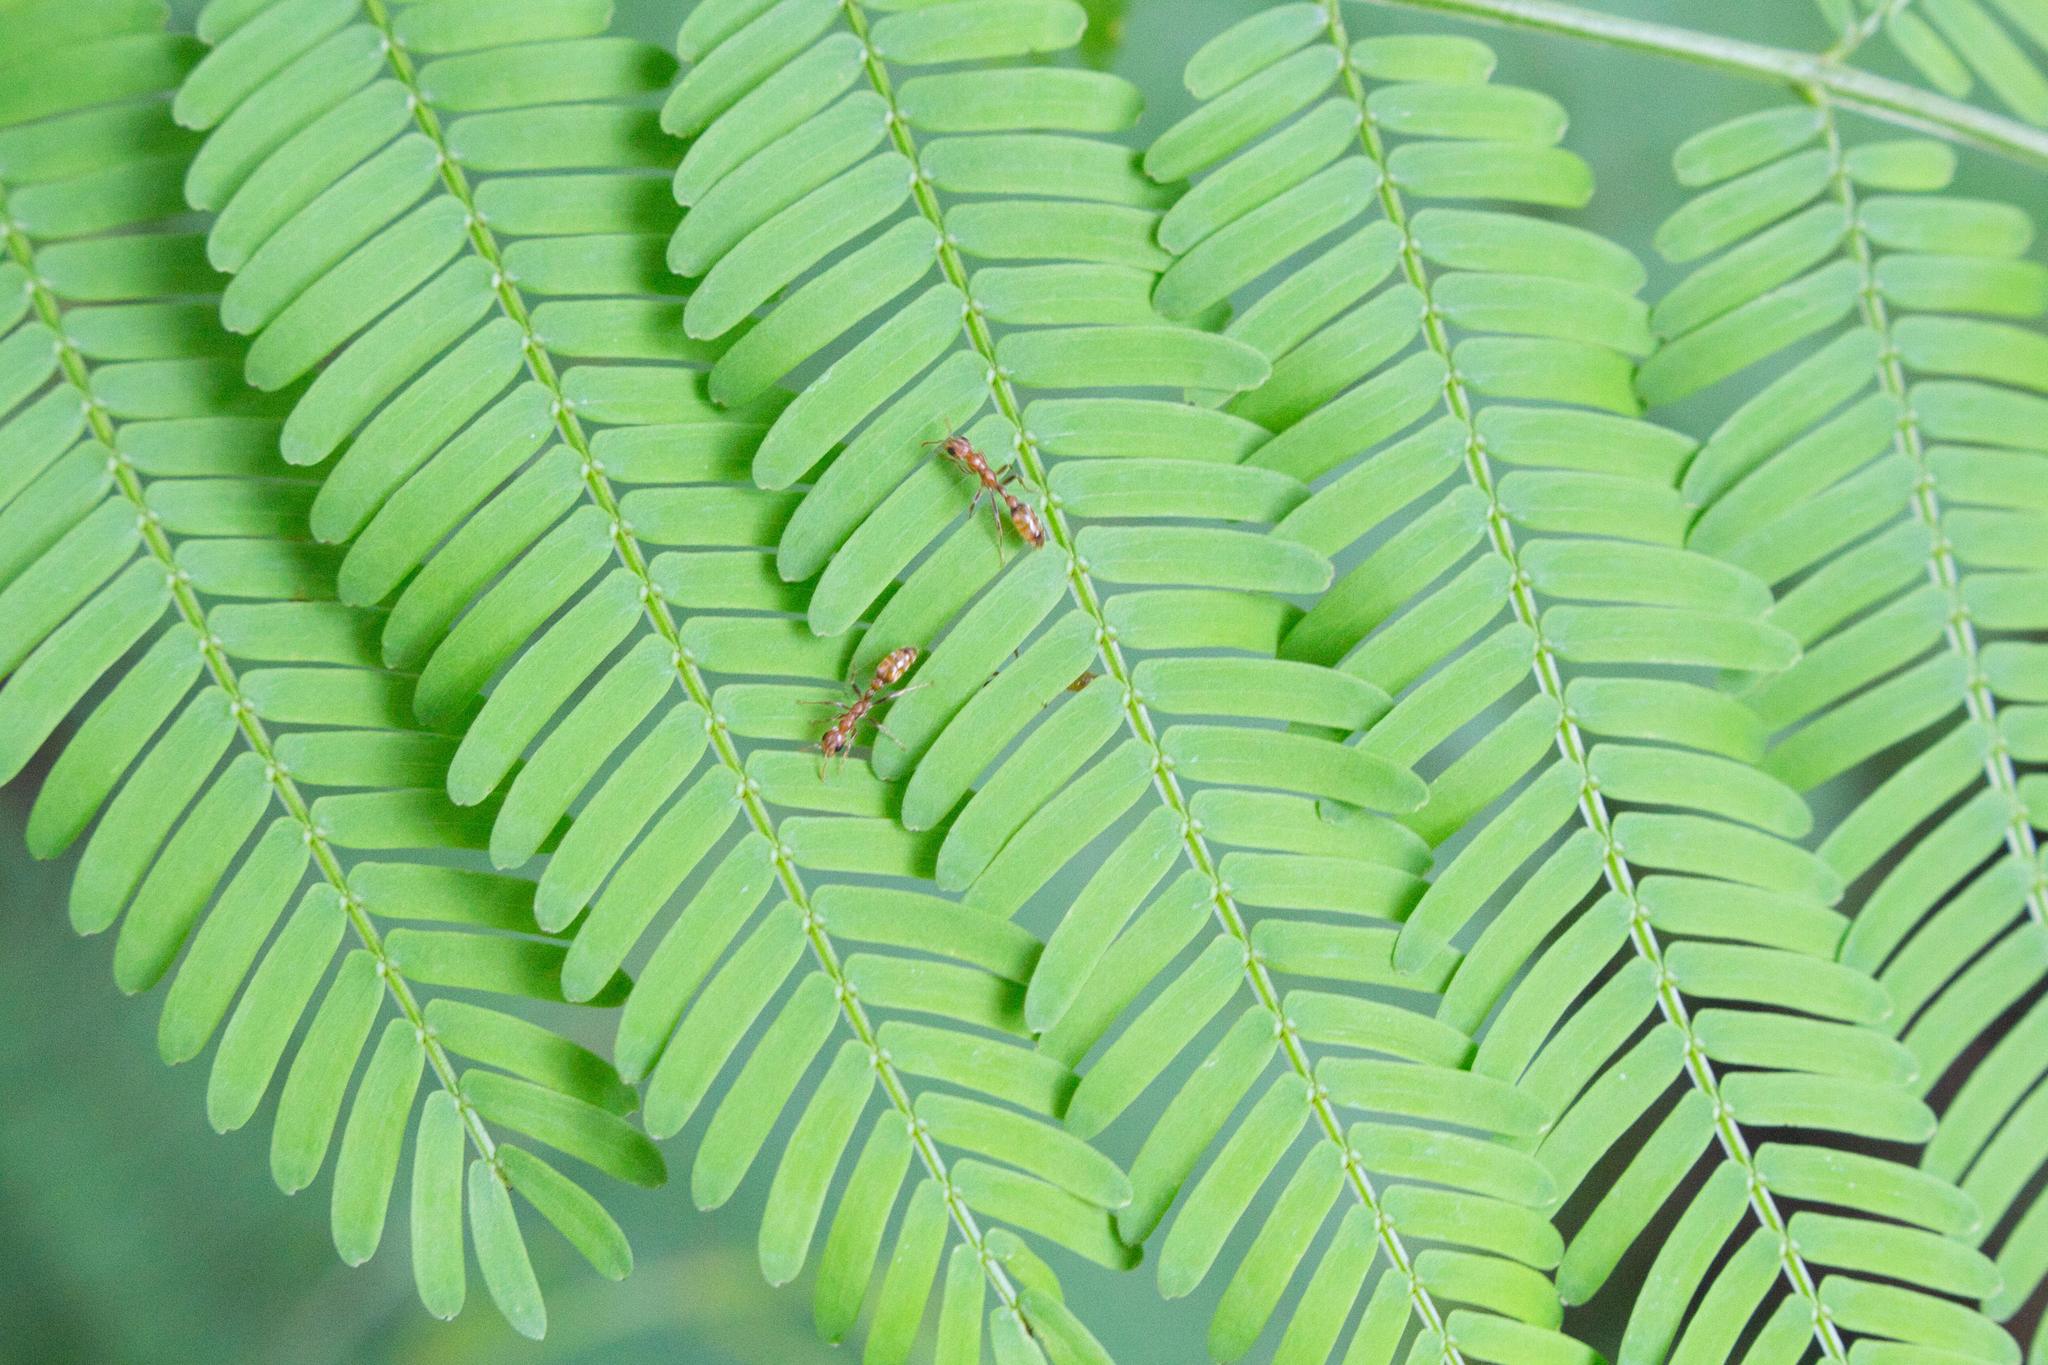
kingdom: Plantae
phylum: Tracheophyta
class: Magnoliopsida
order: Fabales
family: Fabaceae
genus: Vachellia
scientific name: Vachellia collinsii
